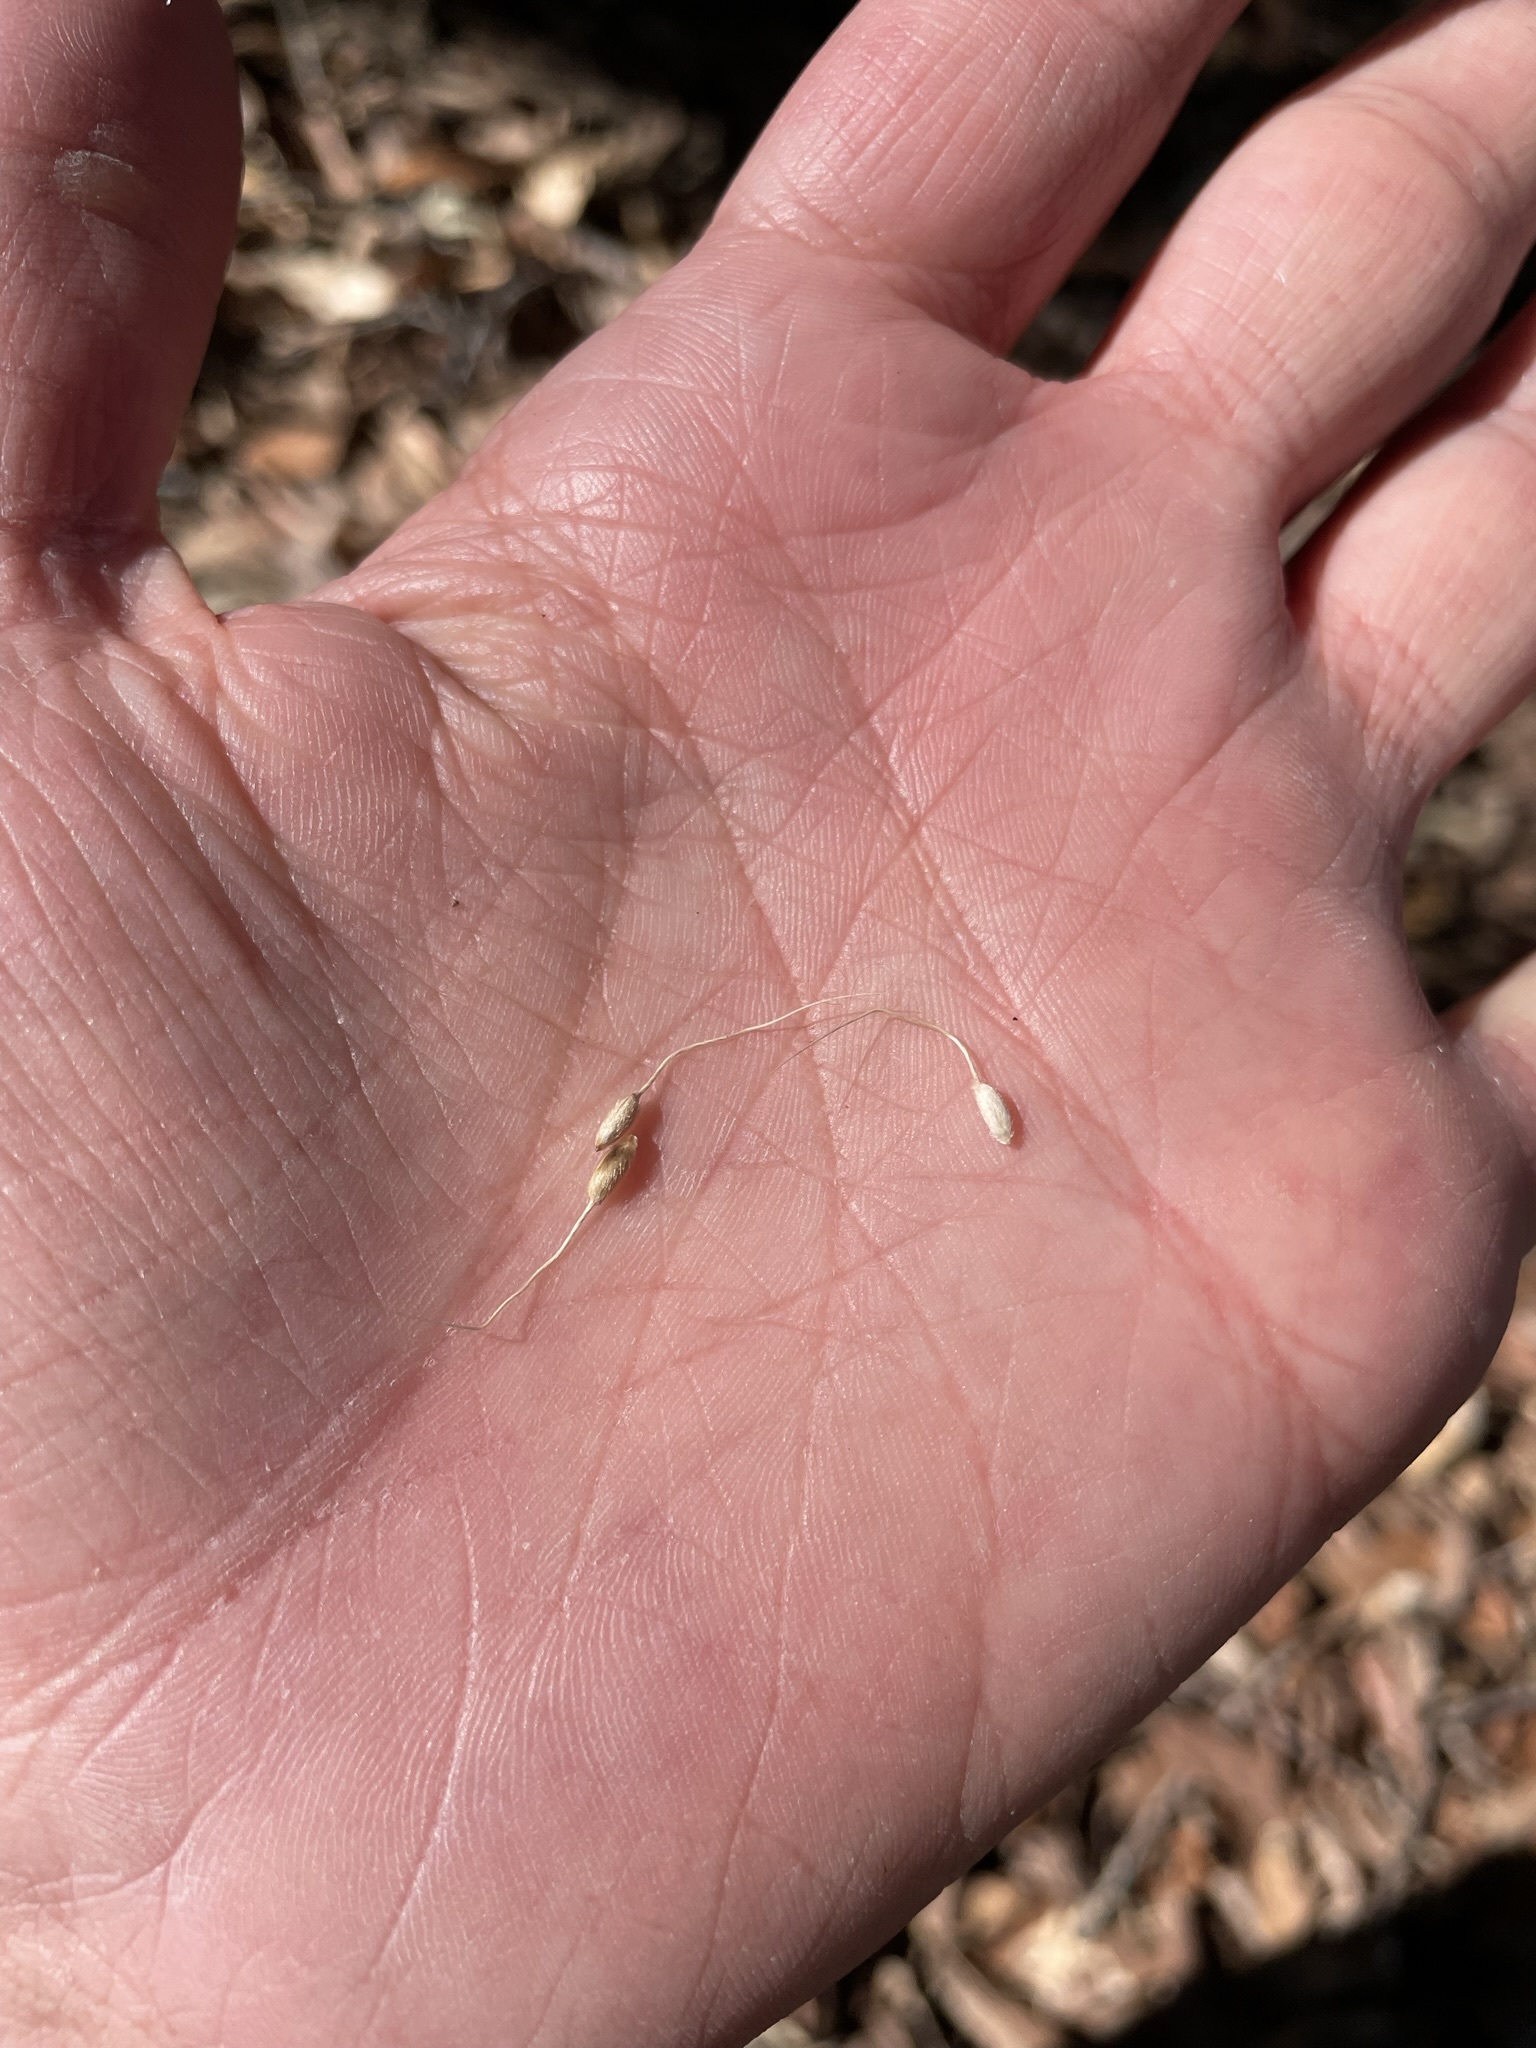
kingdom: Plantae
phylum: Tracheophyta
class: Liliopsida
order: Poales
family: Poaceae
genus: Piptochaetium
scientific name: Piptochaetium fimbriatum
